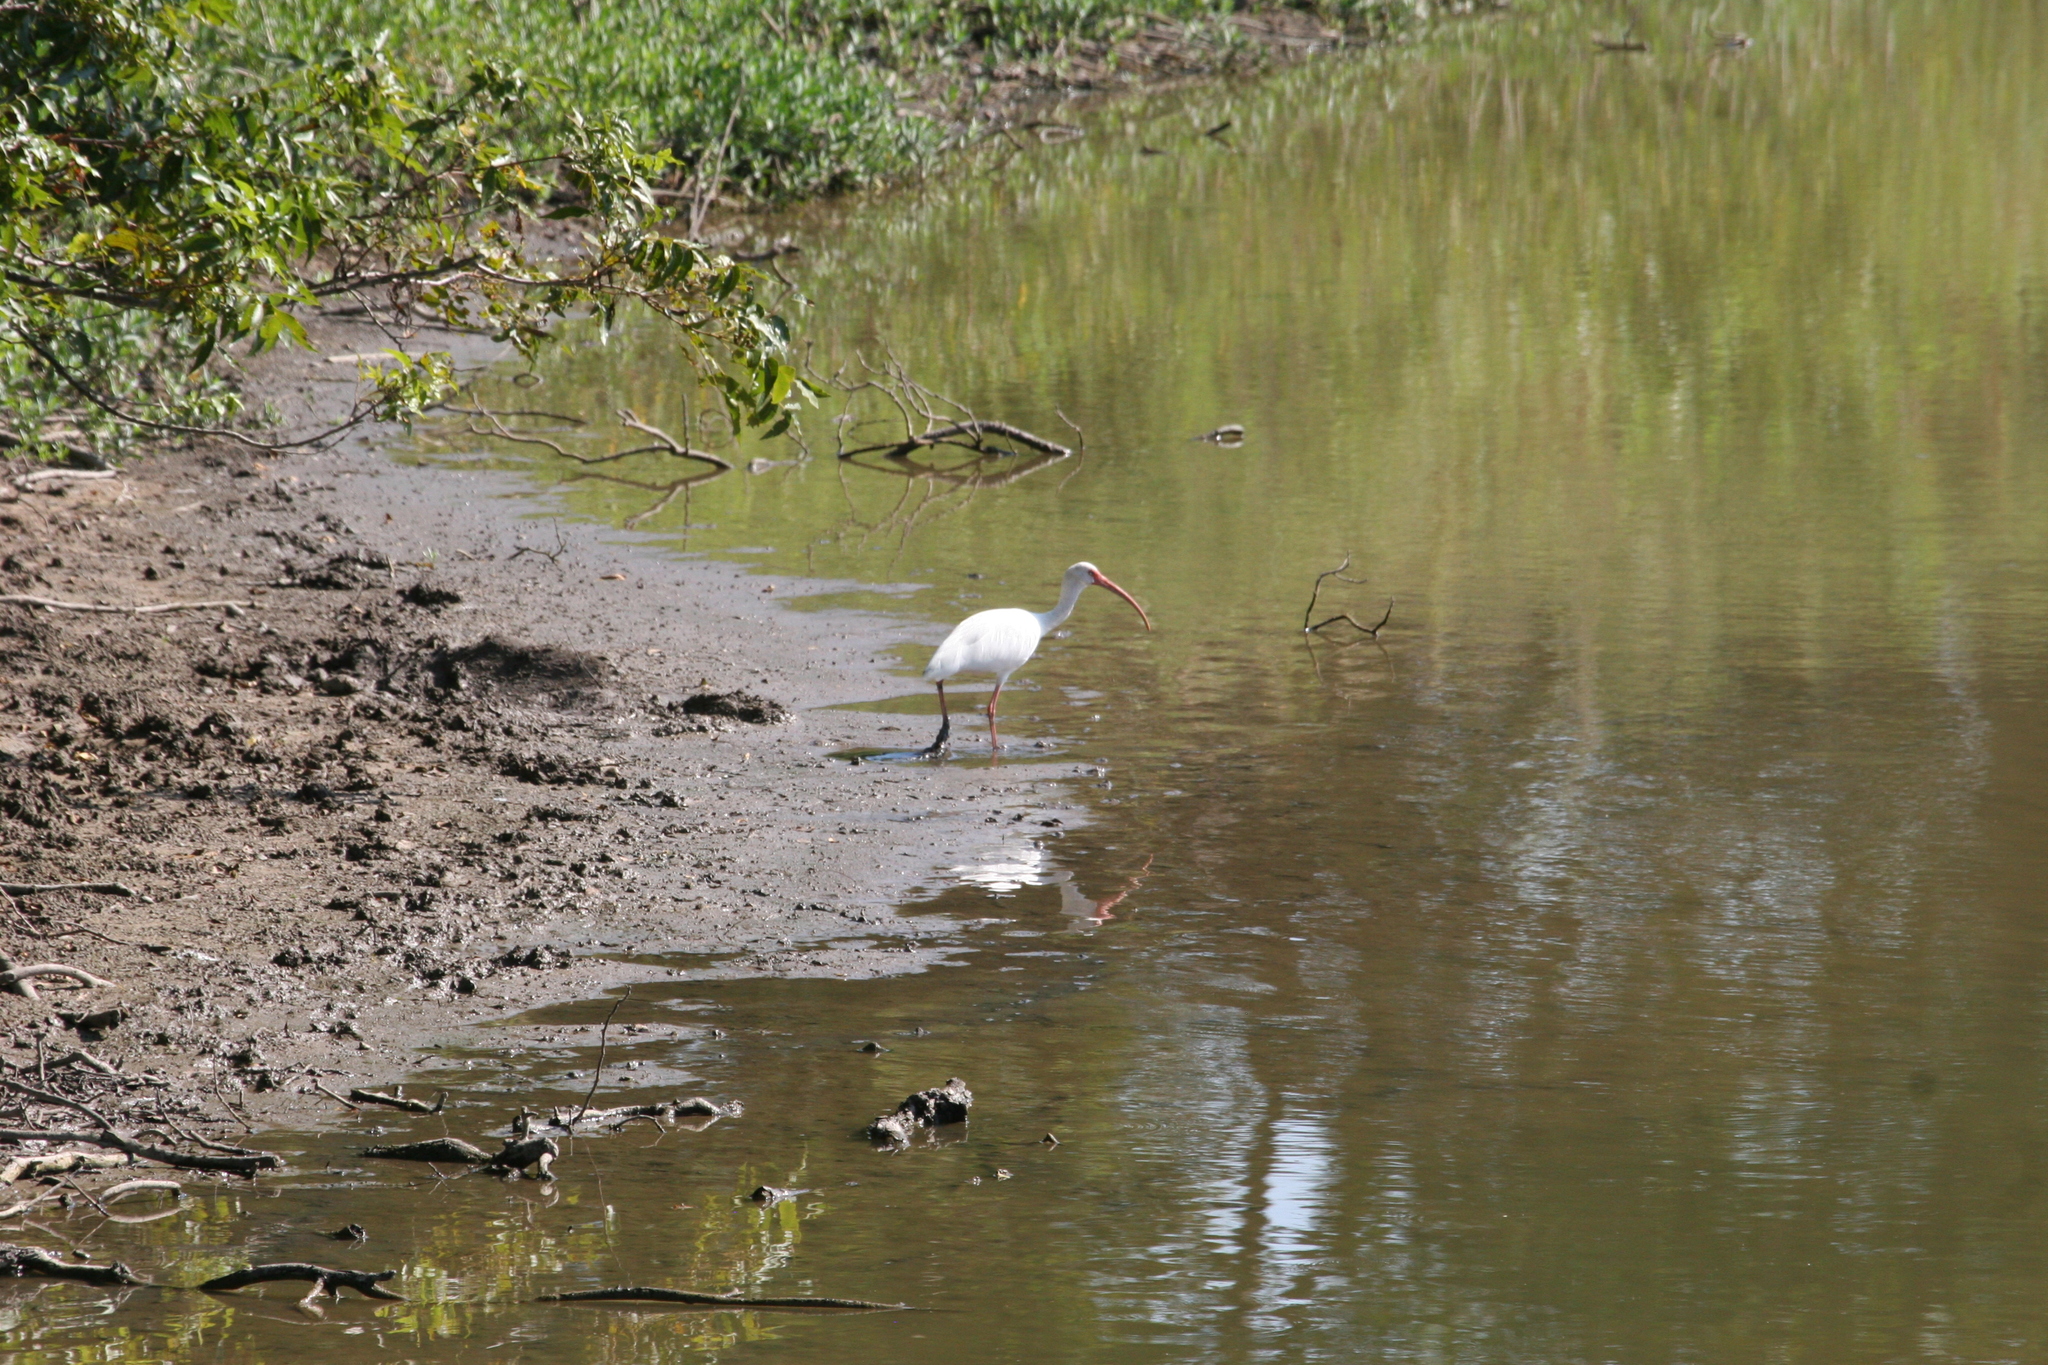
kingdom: Animalia
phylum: Chordata
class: Aves
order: Pelecaniformes
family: Threskiornithidae
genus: Eudocimus
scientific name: Eudocimus albus
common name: White ibis
